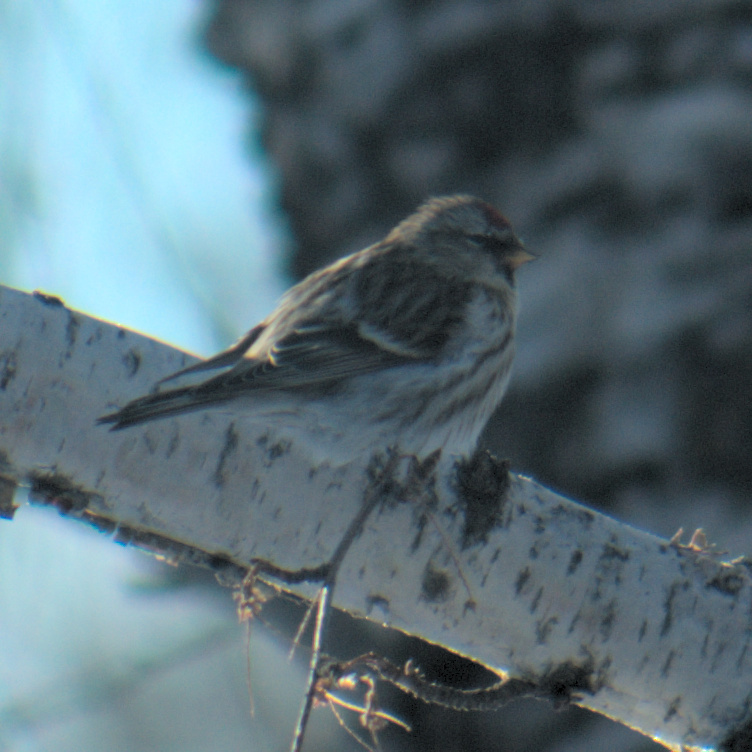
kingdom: Animalia
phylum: Chordata
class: Aves
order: Passeriformes
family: Fringillidae
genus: Acanthis
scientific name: Acanthis flammea
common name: Common redpoll
